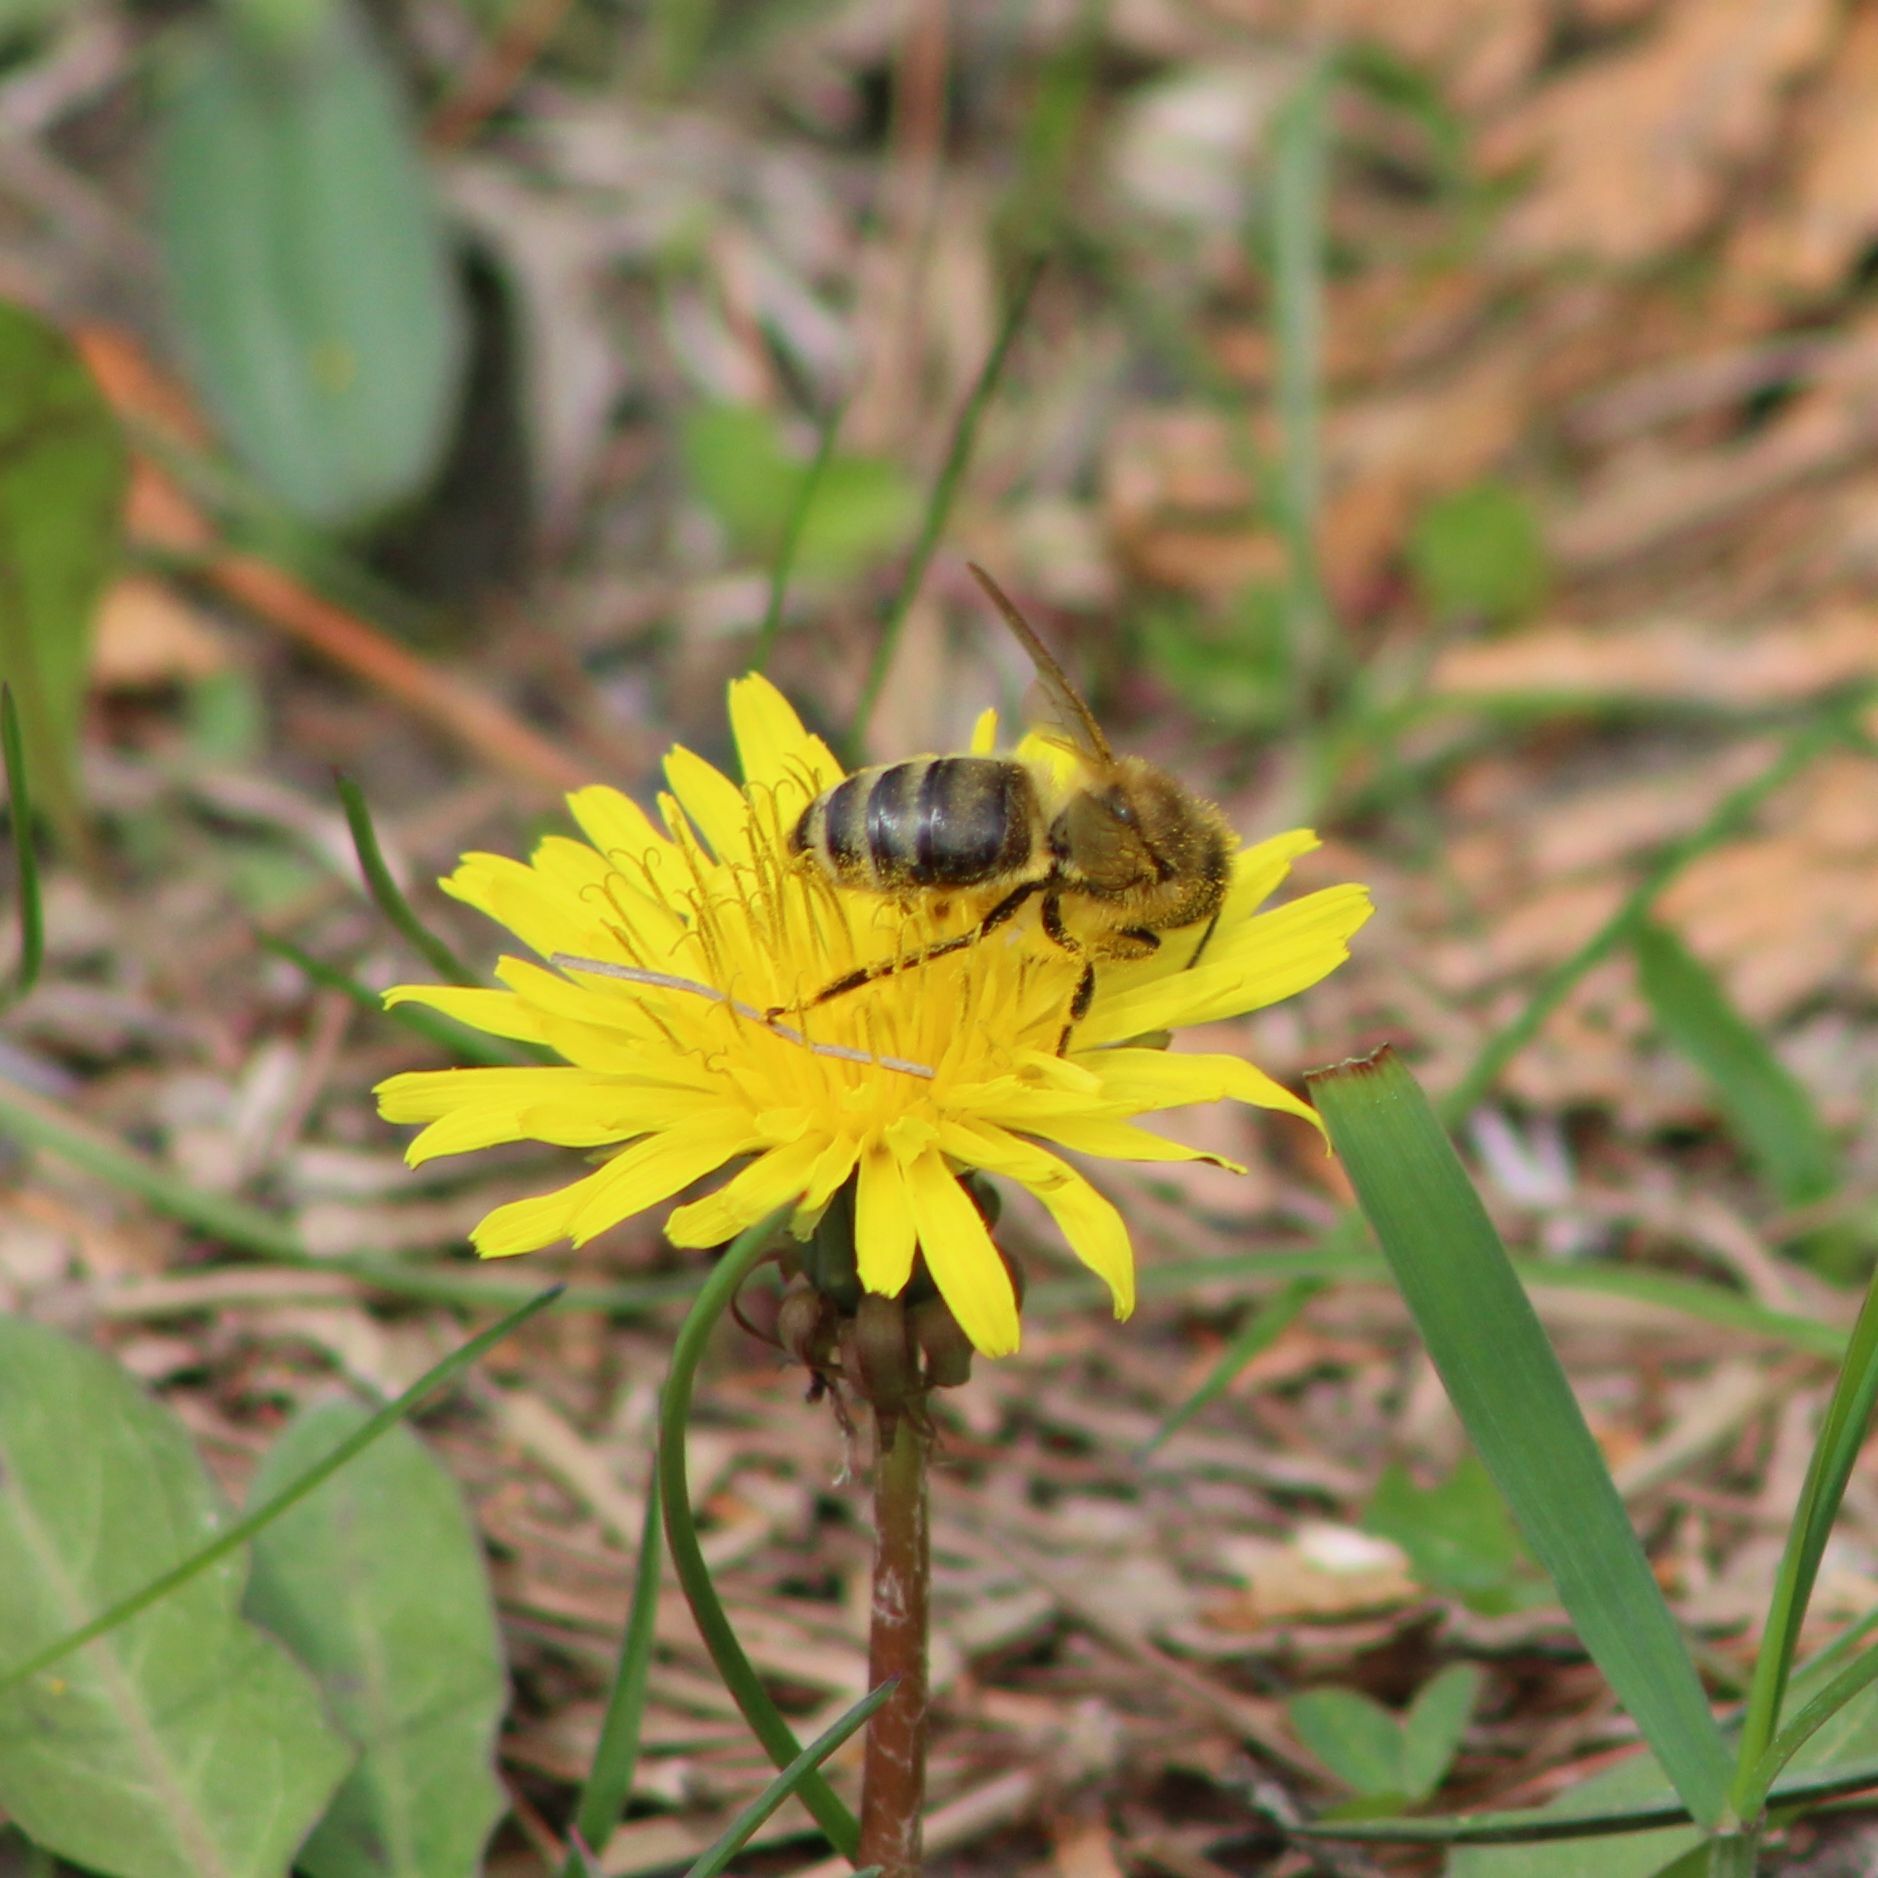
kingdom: Animalia
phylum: Arthropoda
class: Insecta
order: Hymenoptera
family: Apidae
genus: Apis
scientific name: Apis mellifera
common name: Honey bee
